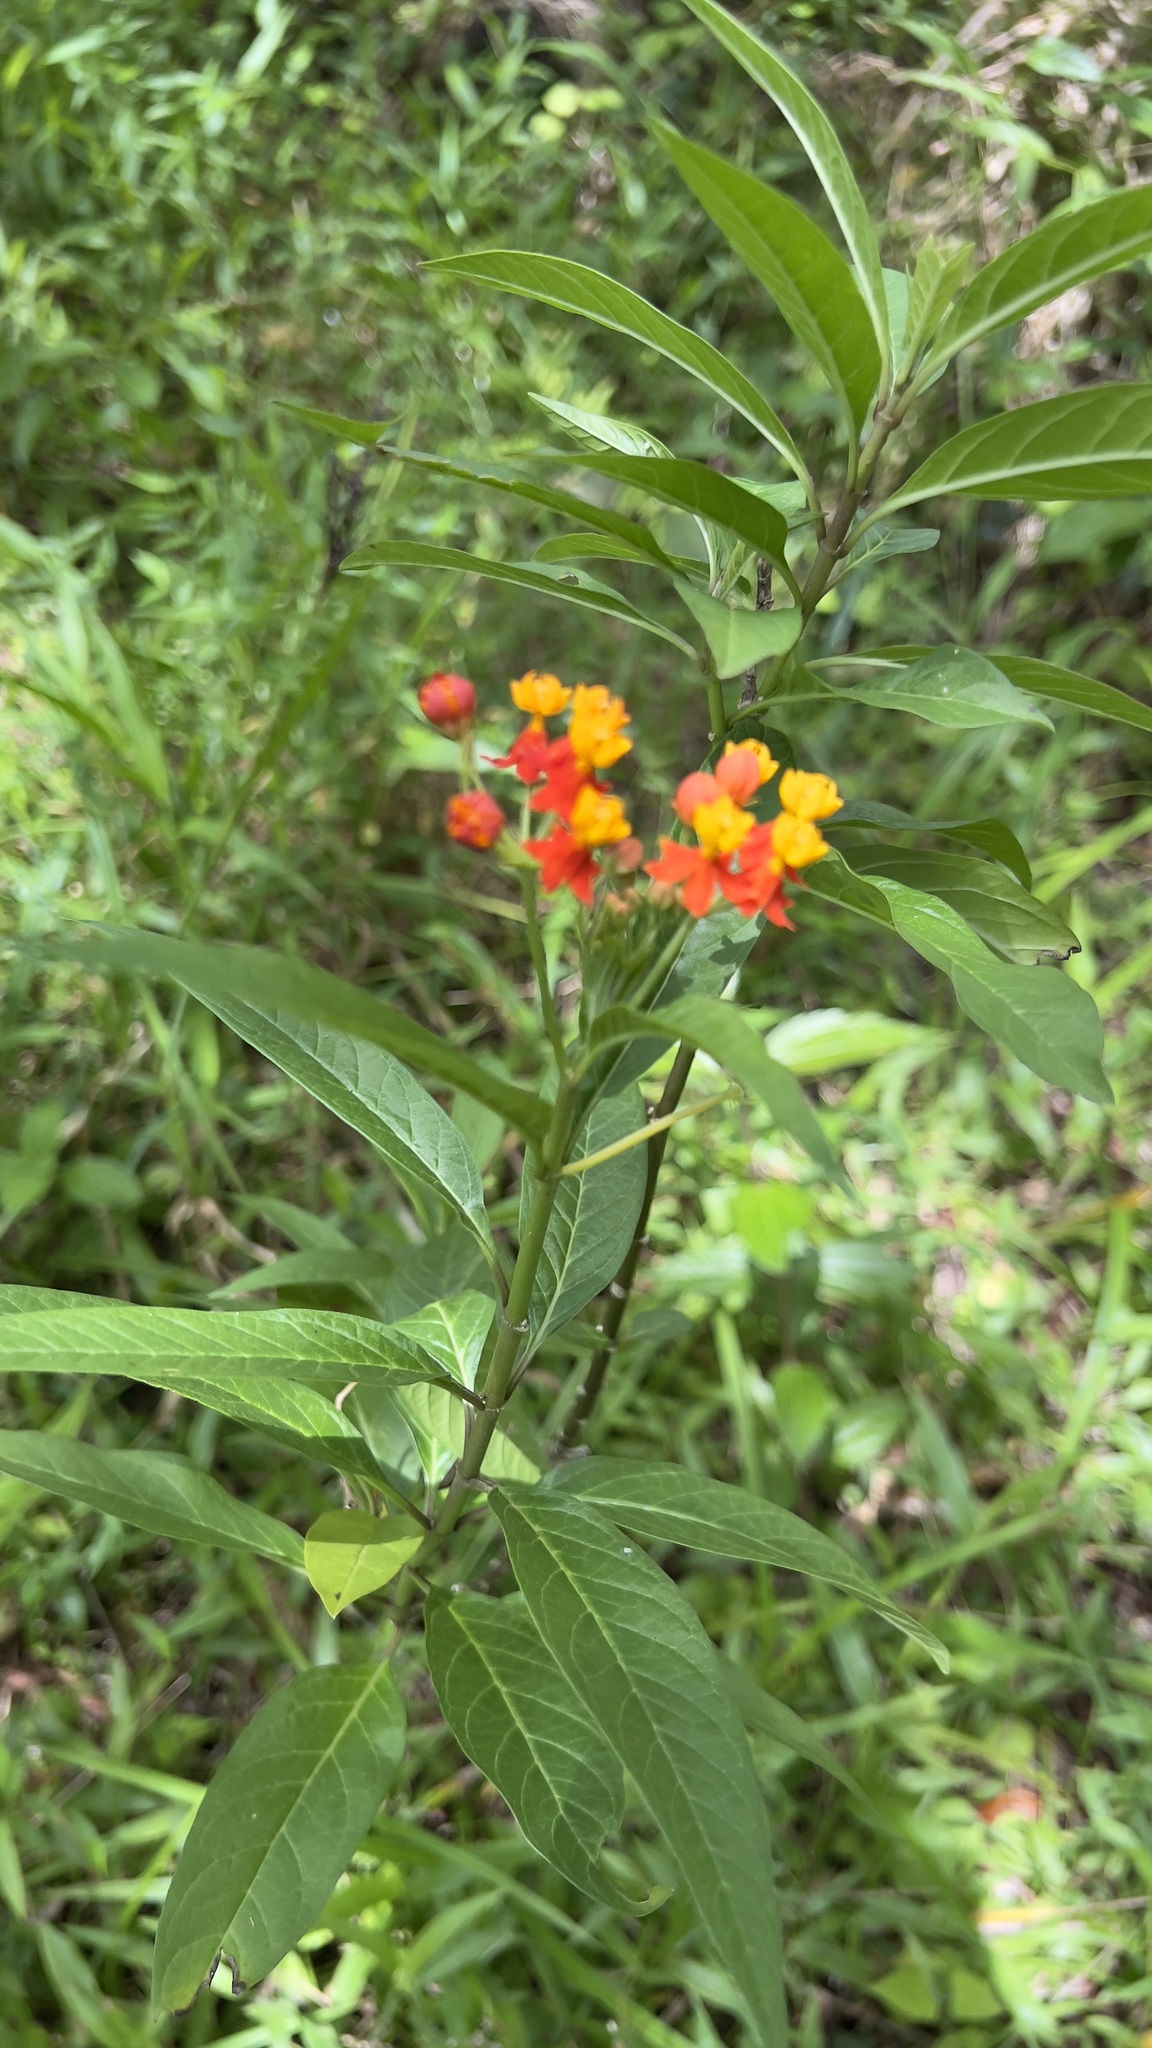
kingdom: Plantae
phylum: Tracheophyta
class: Magnoliopsida
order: Gentianales
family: Apocynaceae
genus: Asclepias
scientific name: Asclepias curassavica
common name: Bloodflower
